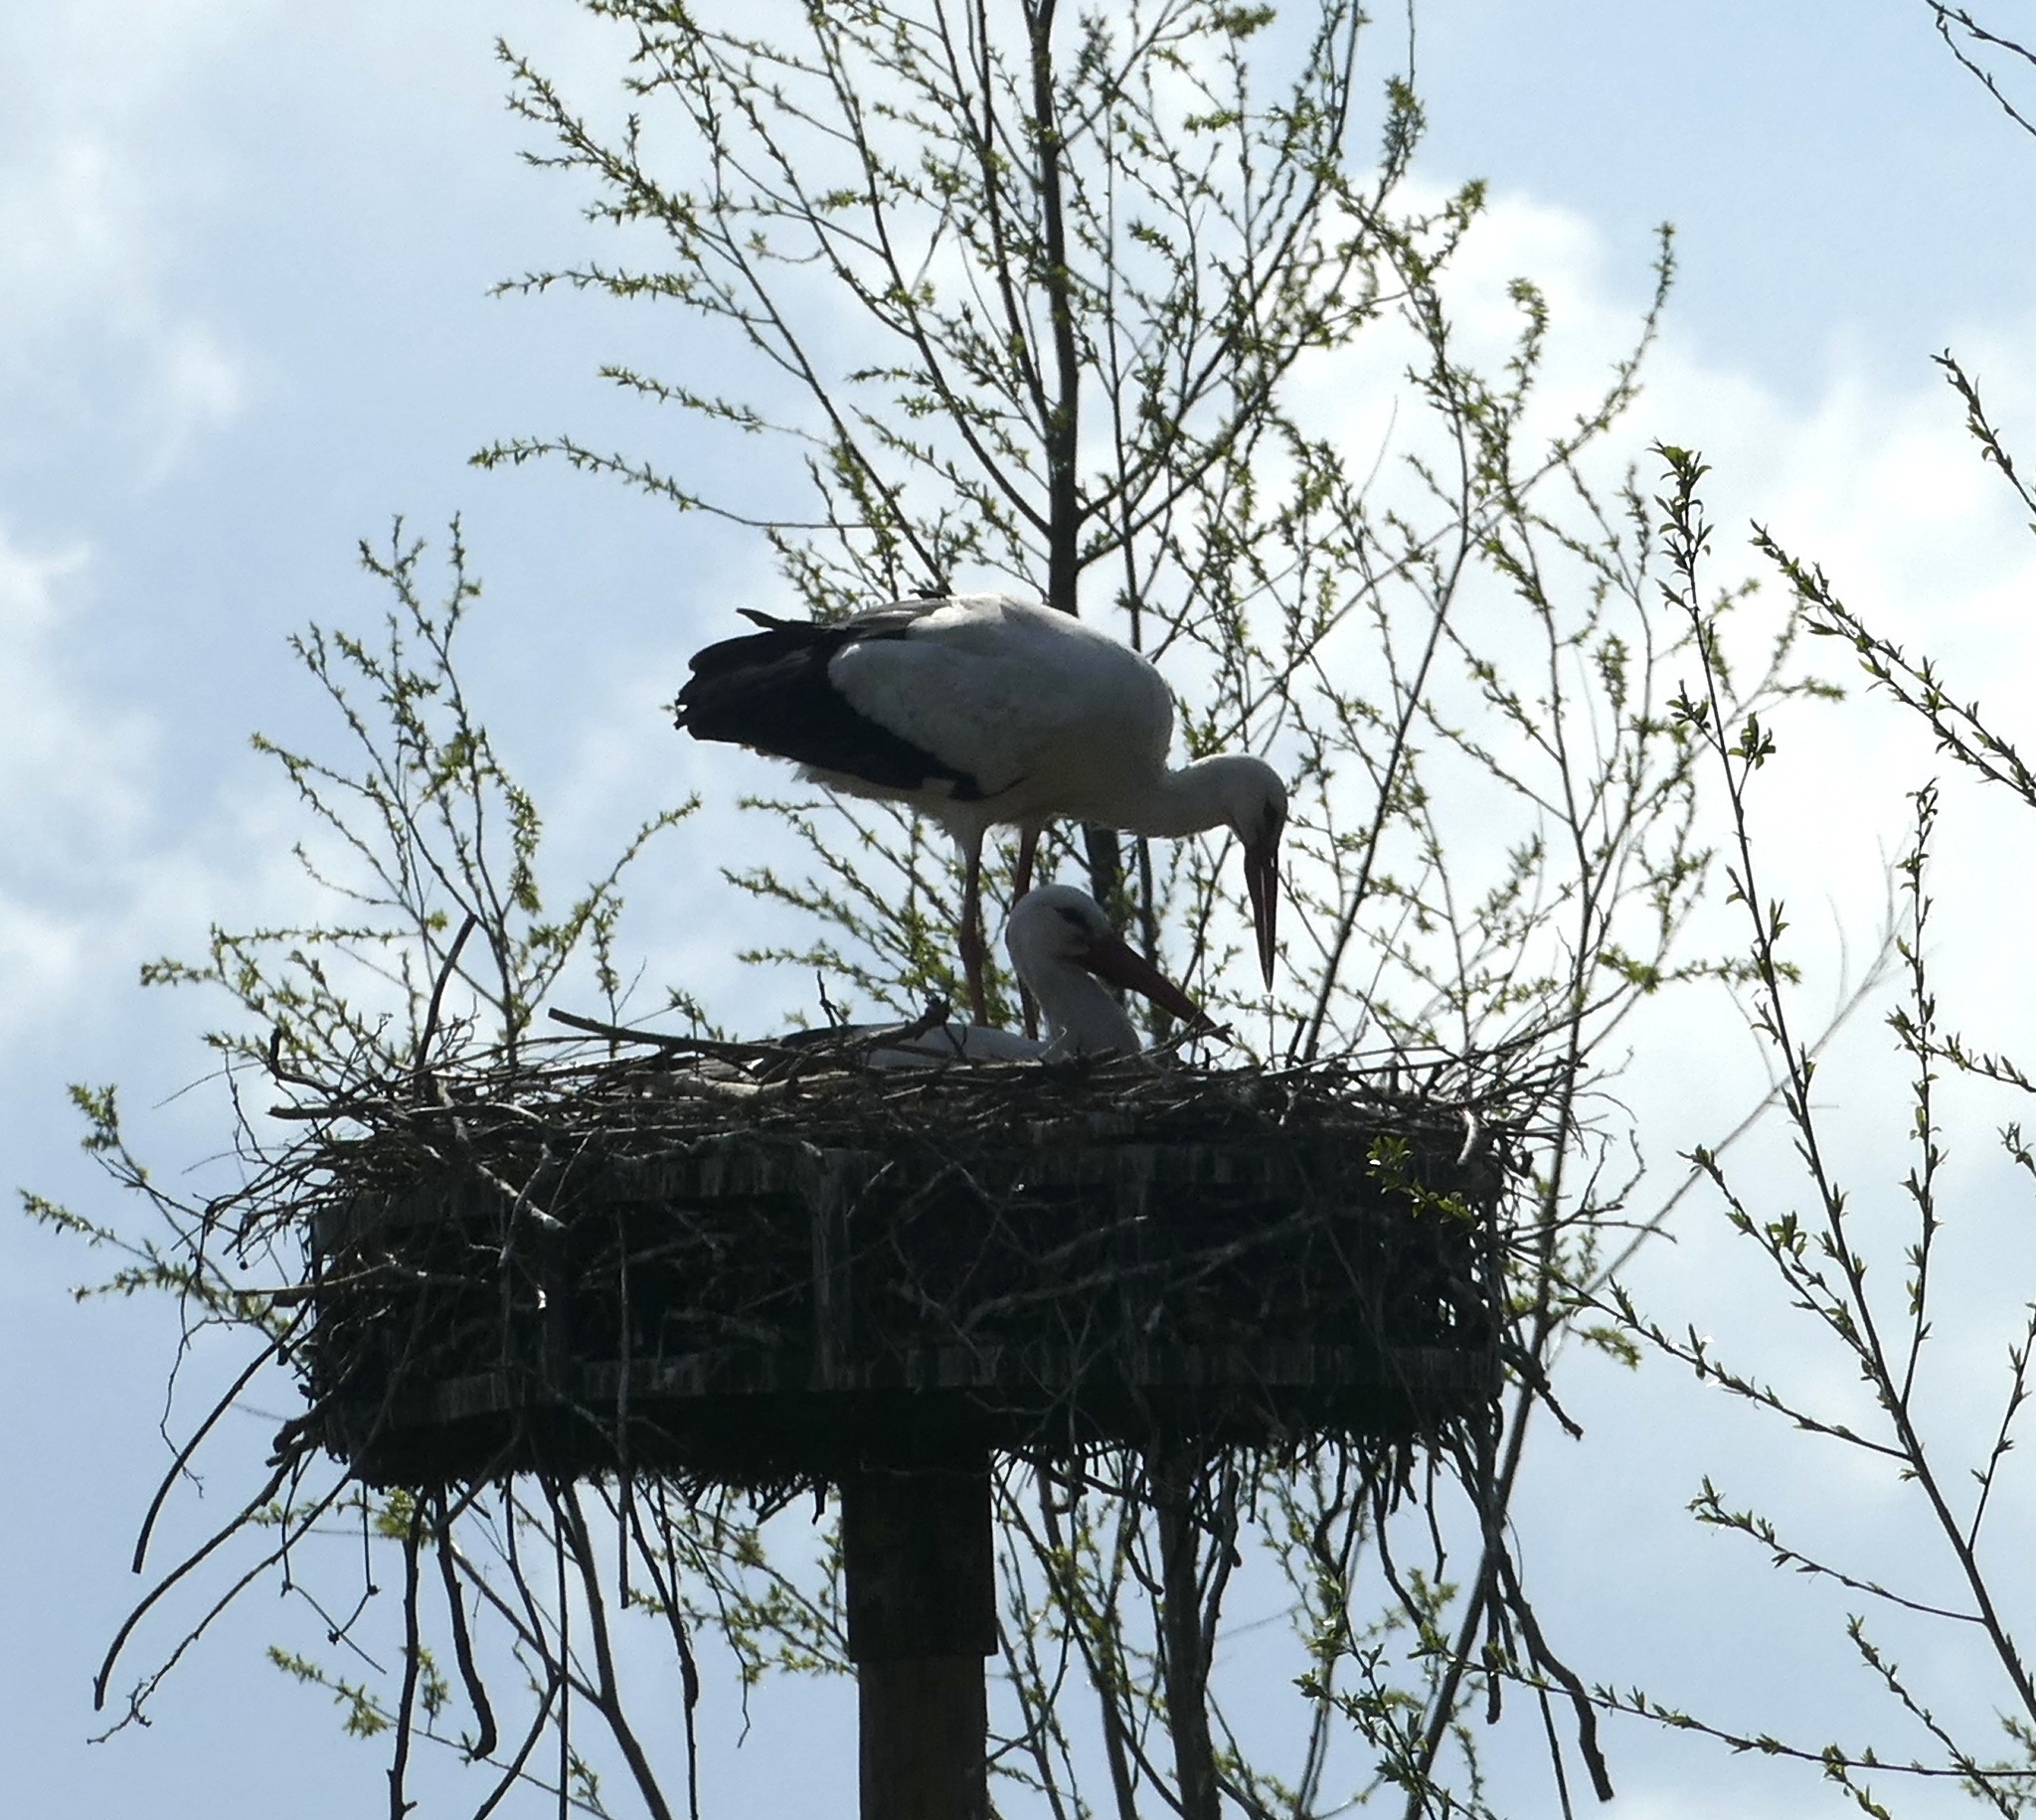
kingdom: Animalia
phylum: Chordata
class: Aves
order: Ciconiiformes
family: Ciconiidae
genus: Ciconia
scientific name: Ciconia ciconia
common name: White stork
